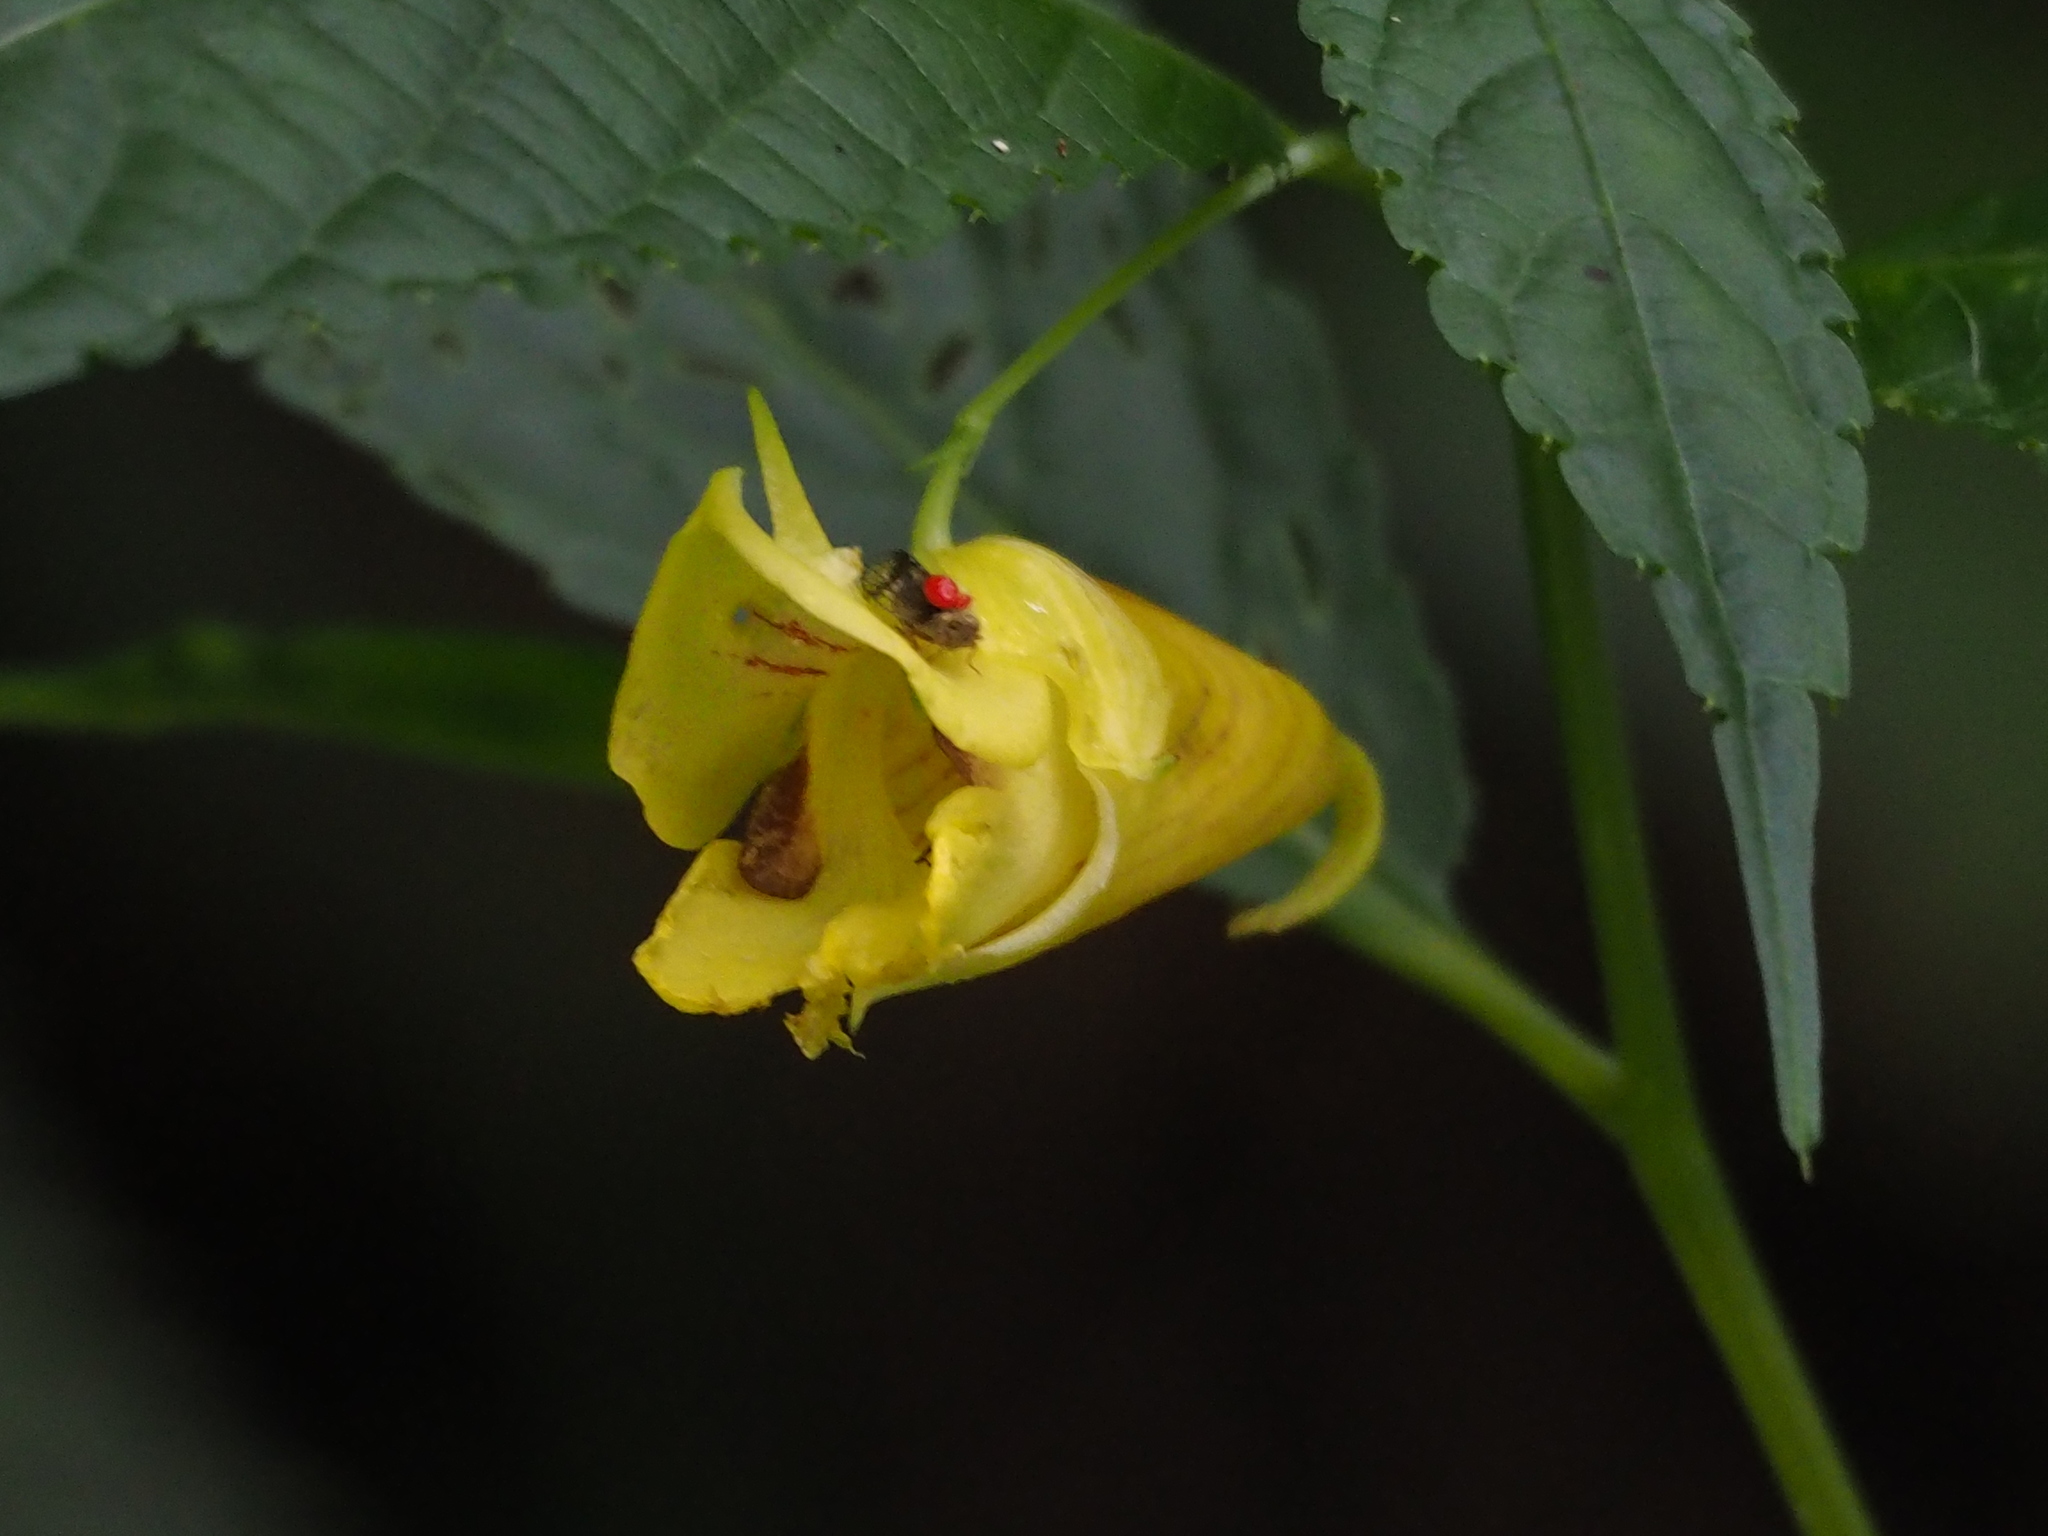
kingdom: Plantae
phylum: Tracheophyta
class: Magnoliopsida
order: Ericales
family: Balsaminaceae
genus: Impatiens
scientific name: Impatiens tayemonii
